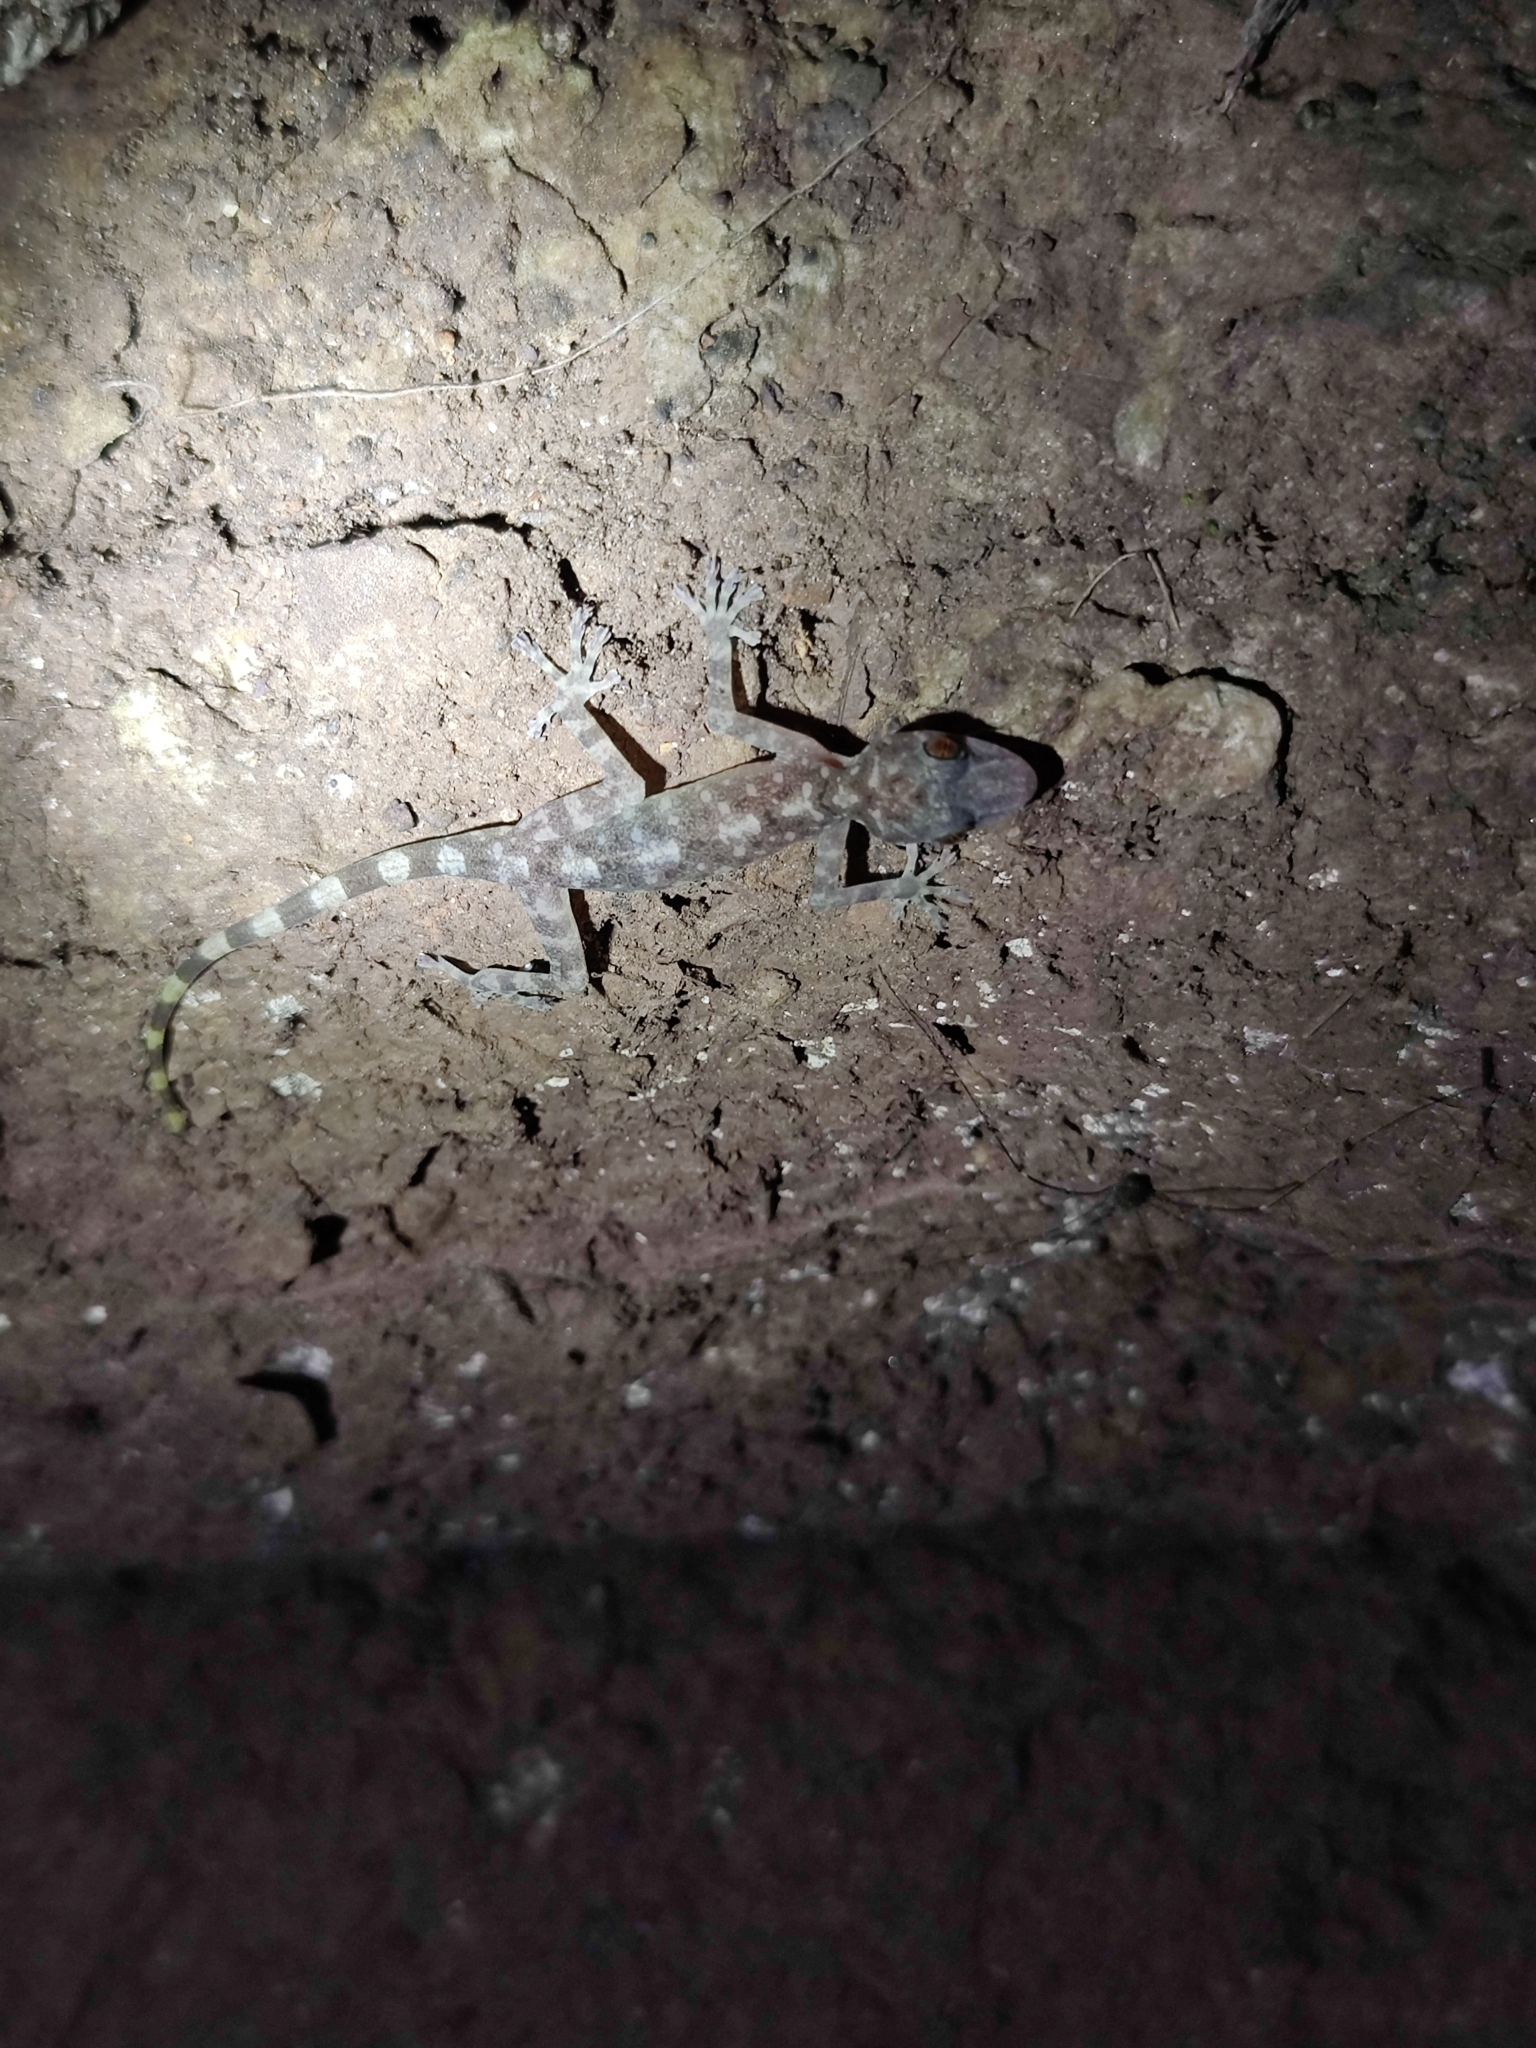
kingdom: Animalia
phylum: Chordata
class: Squamata
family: Gekkonidae
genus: Calodactylodes
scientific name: Calodactylodes aureus
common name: Indian golden gecko
